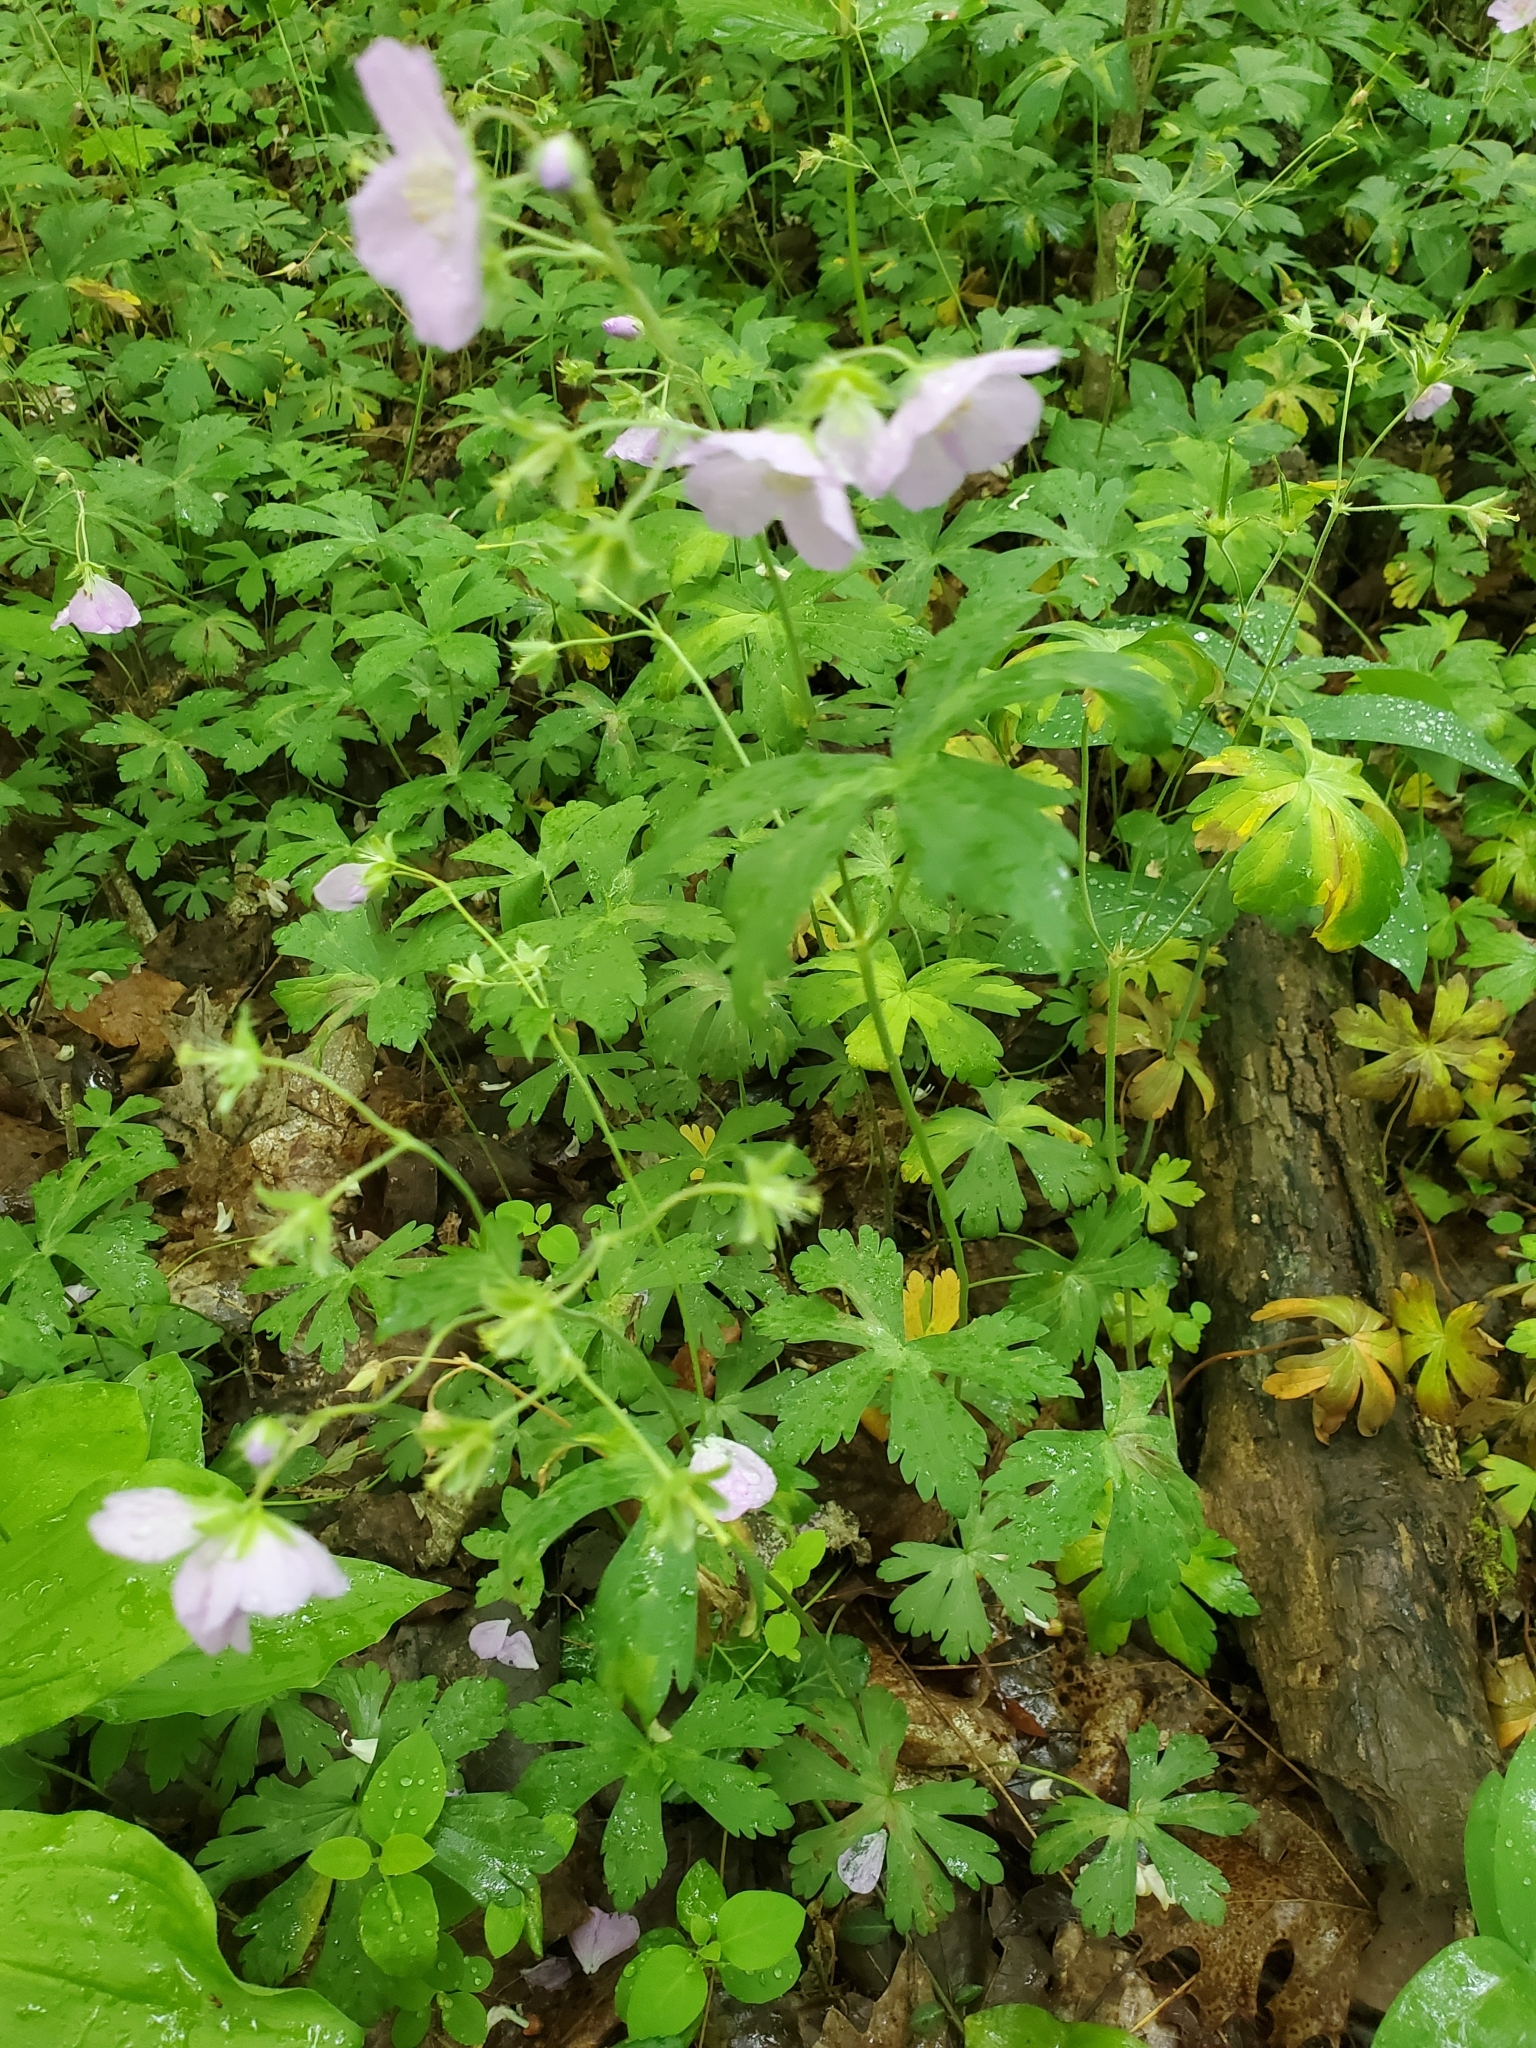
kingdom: Plantae
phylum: Tracheophyta
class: Magnoliopsida
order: Geraniales
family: Geraniaceae
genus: Geranium
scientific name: Geranium maculatum
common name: Spotted geranium
